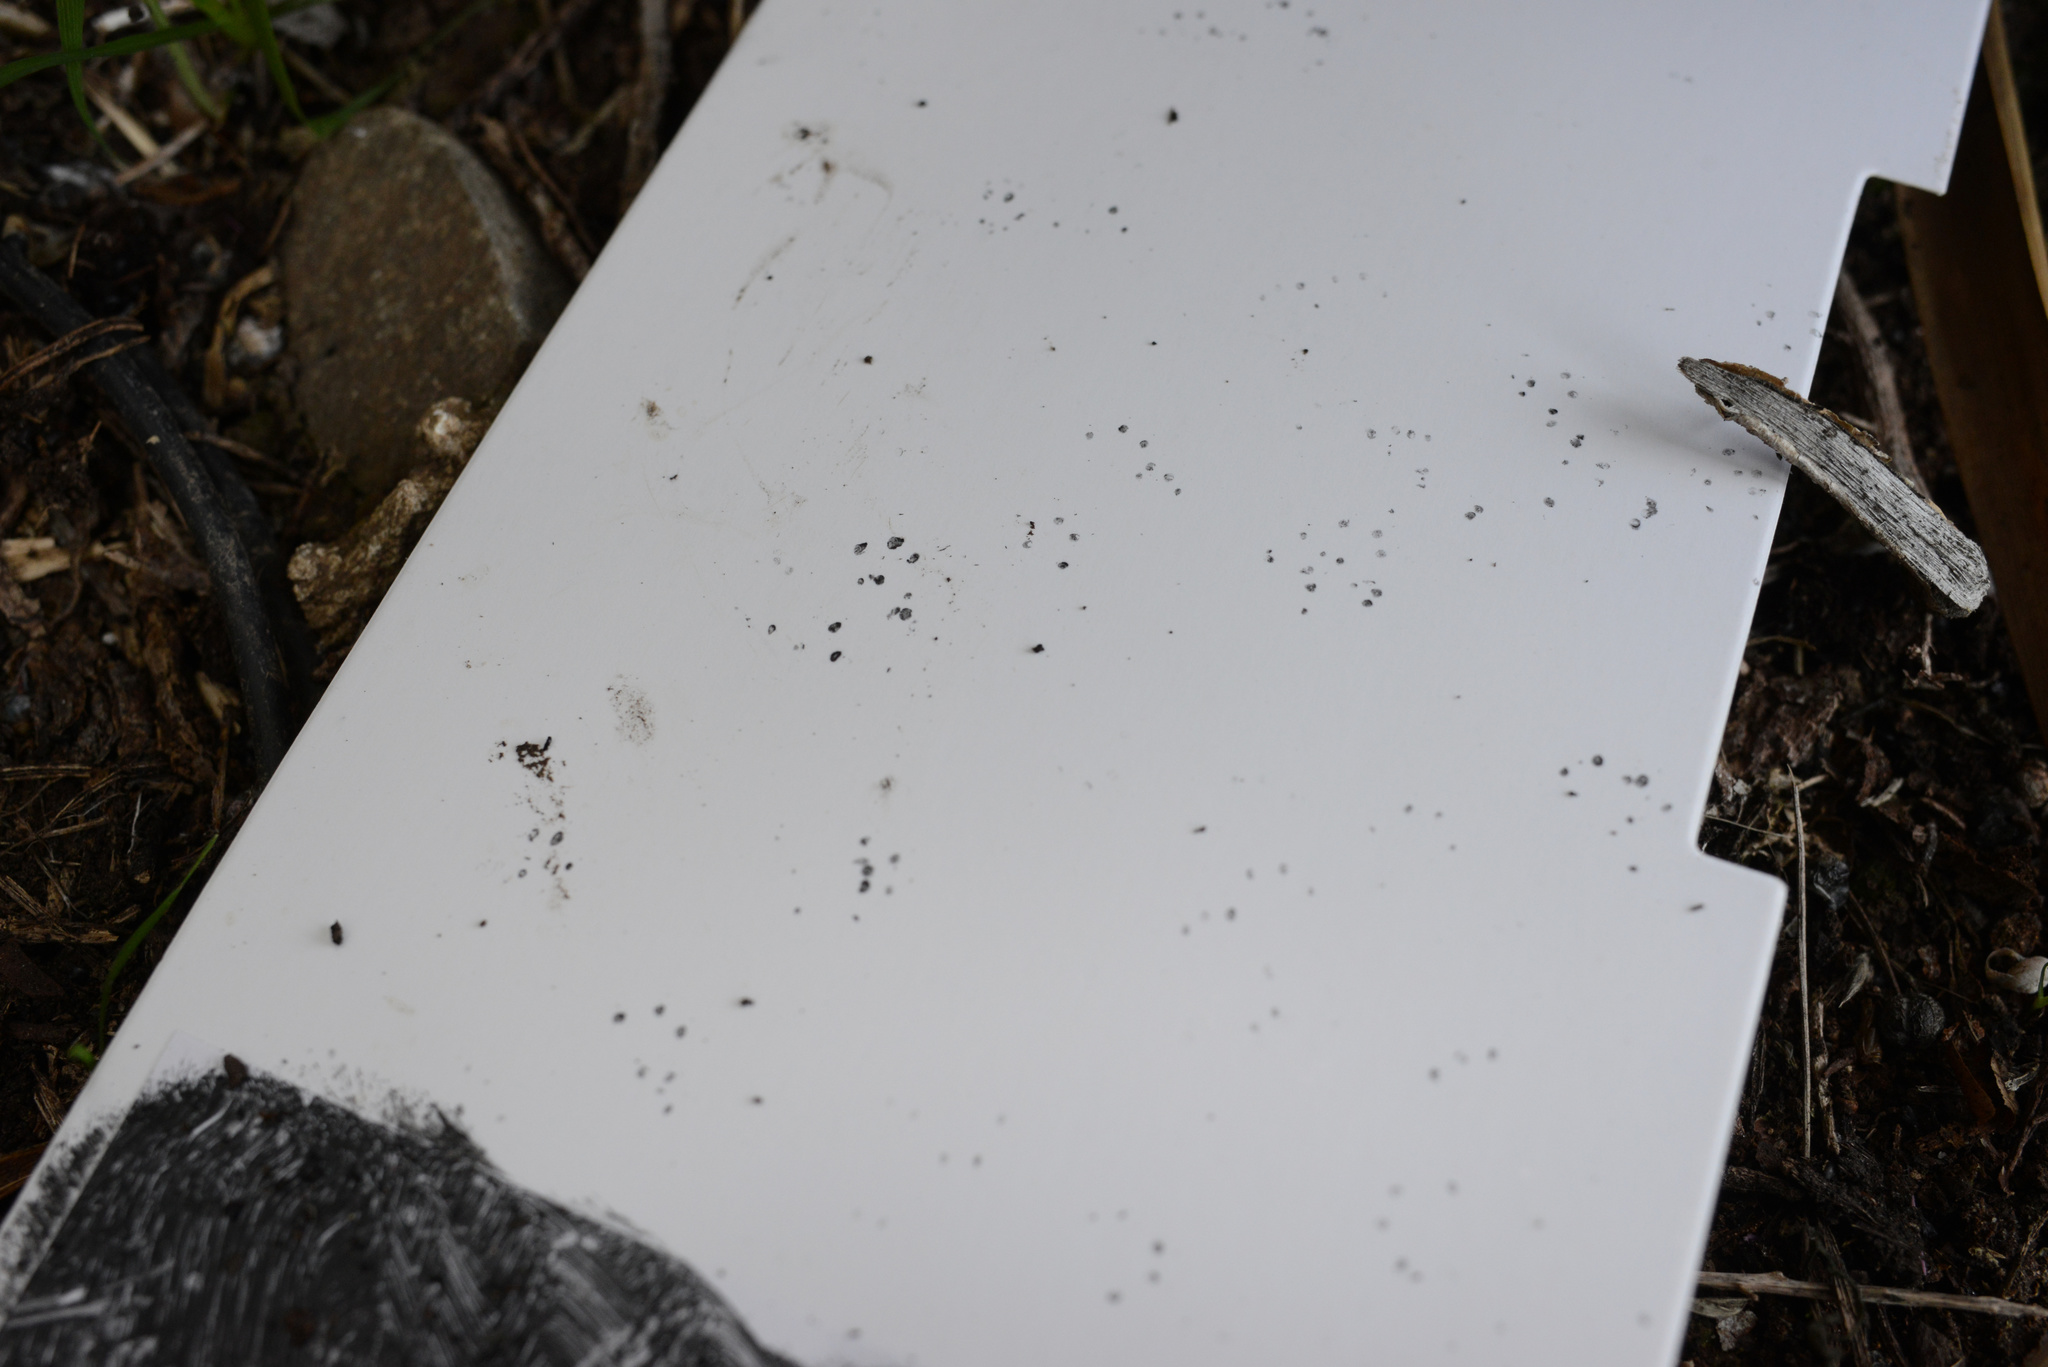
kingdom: Animalia
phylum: Chordata
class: Mammalia
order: Rodentia
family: Muridae
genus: Mus
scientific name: Mus musculus
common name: House mouse
